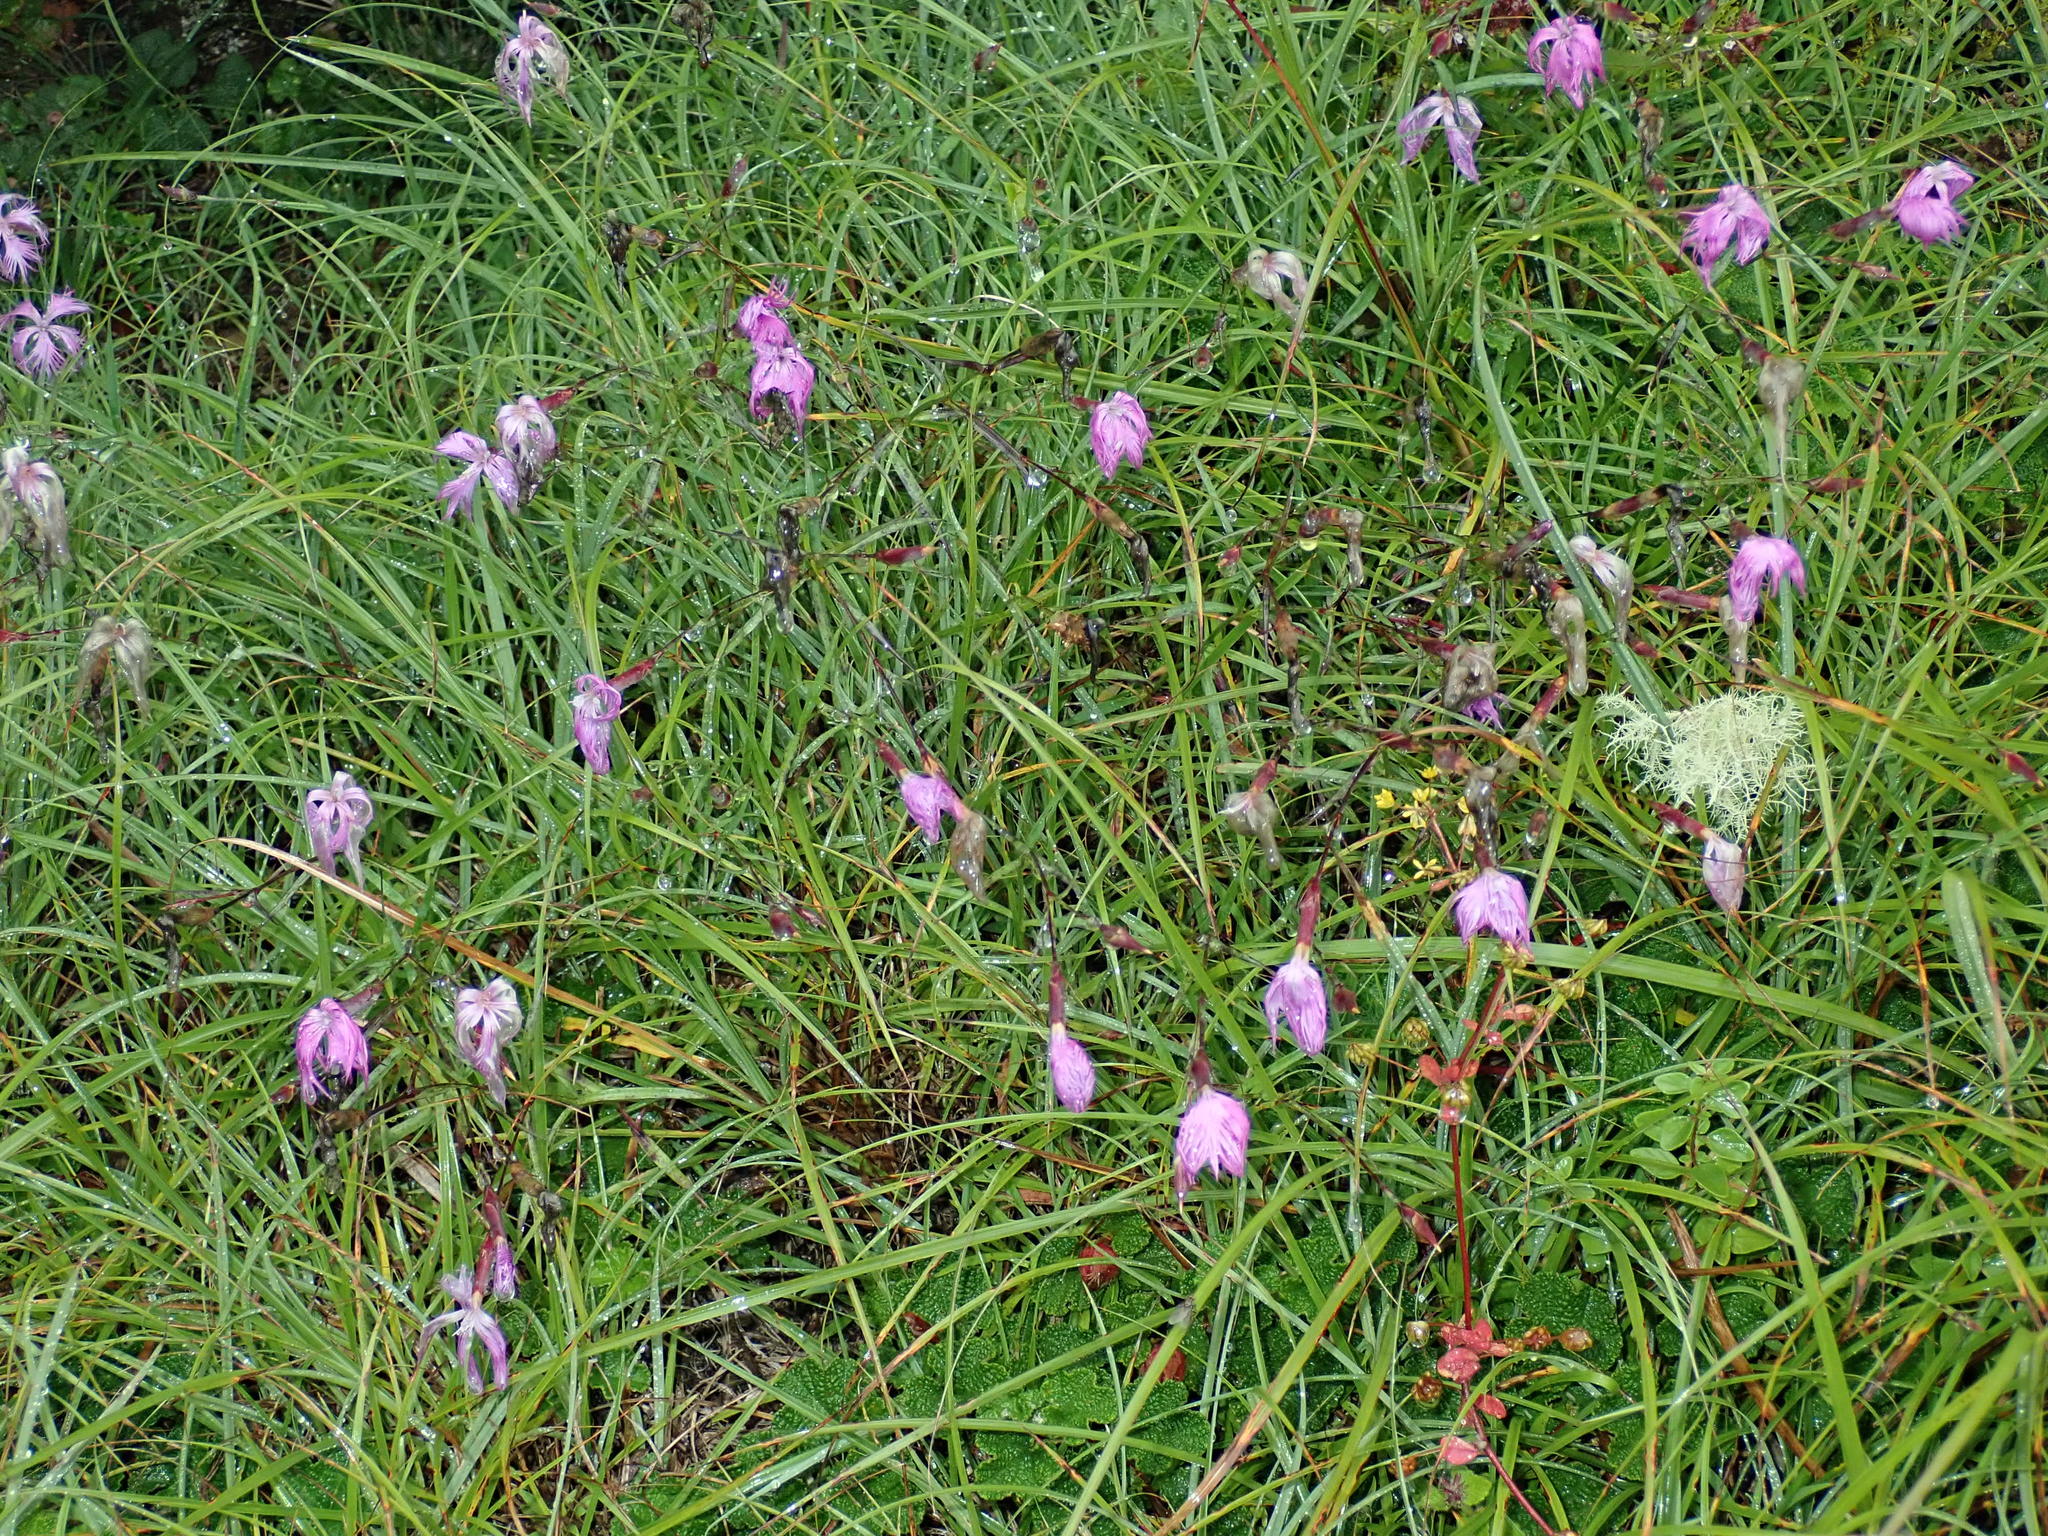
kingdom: Plantae
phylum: Tracheophyta
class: Magnoliopsida
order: Caryophyllales
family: Caryophyllaceae
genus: Dianthus
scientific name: Dianthus longicalyx
